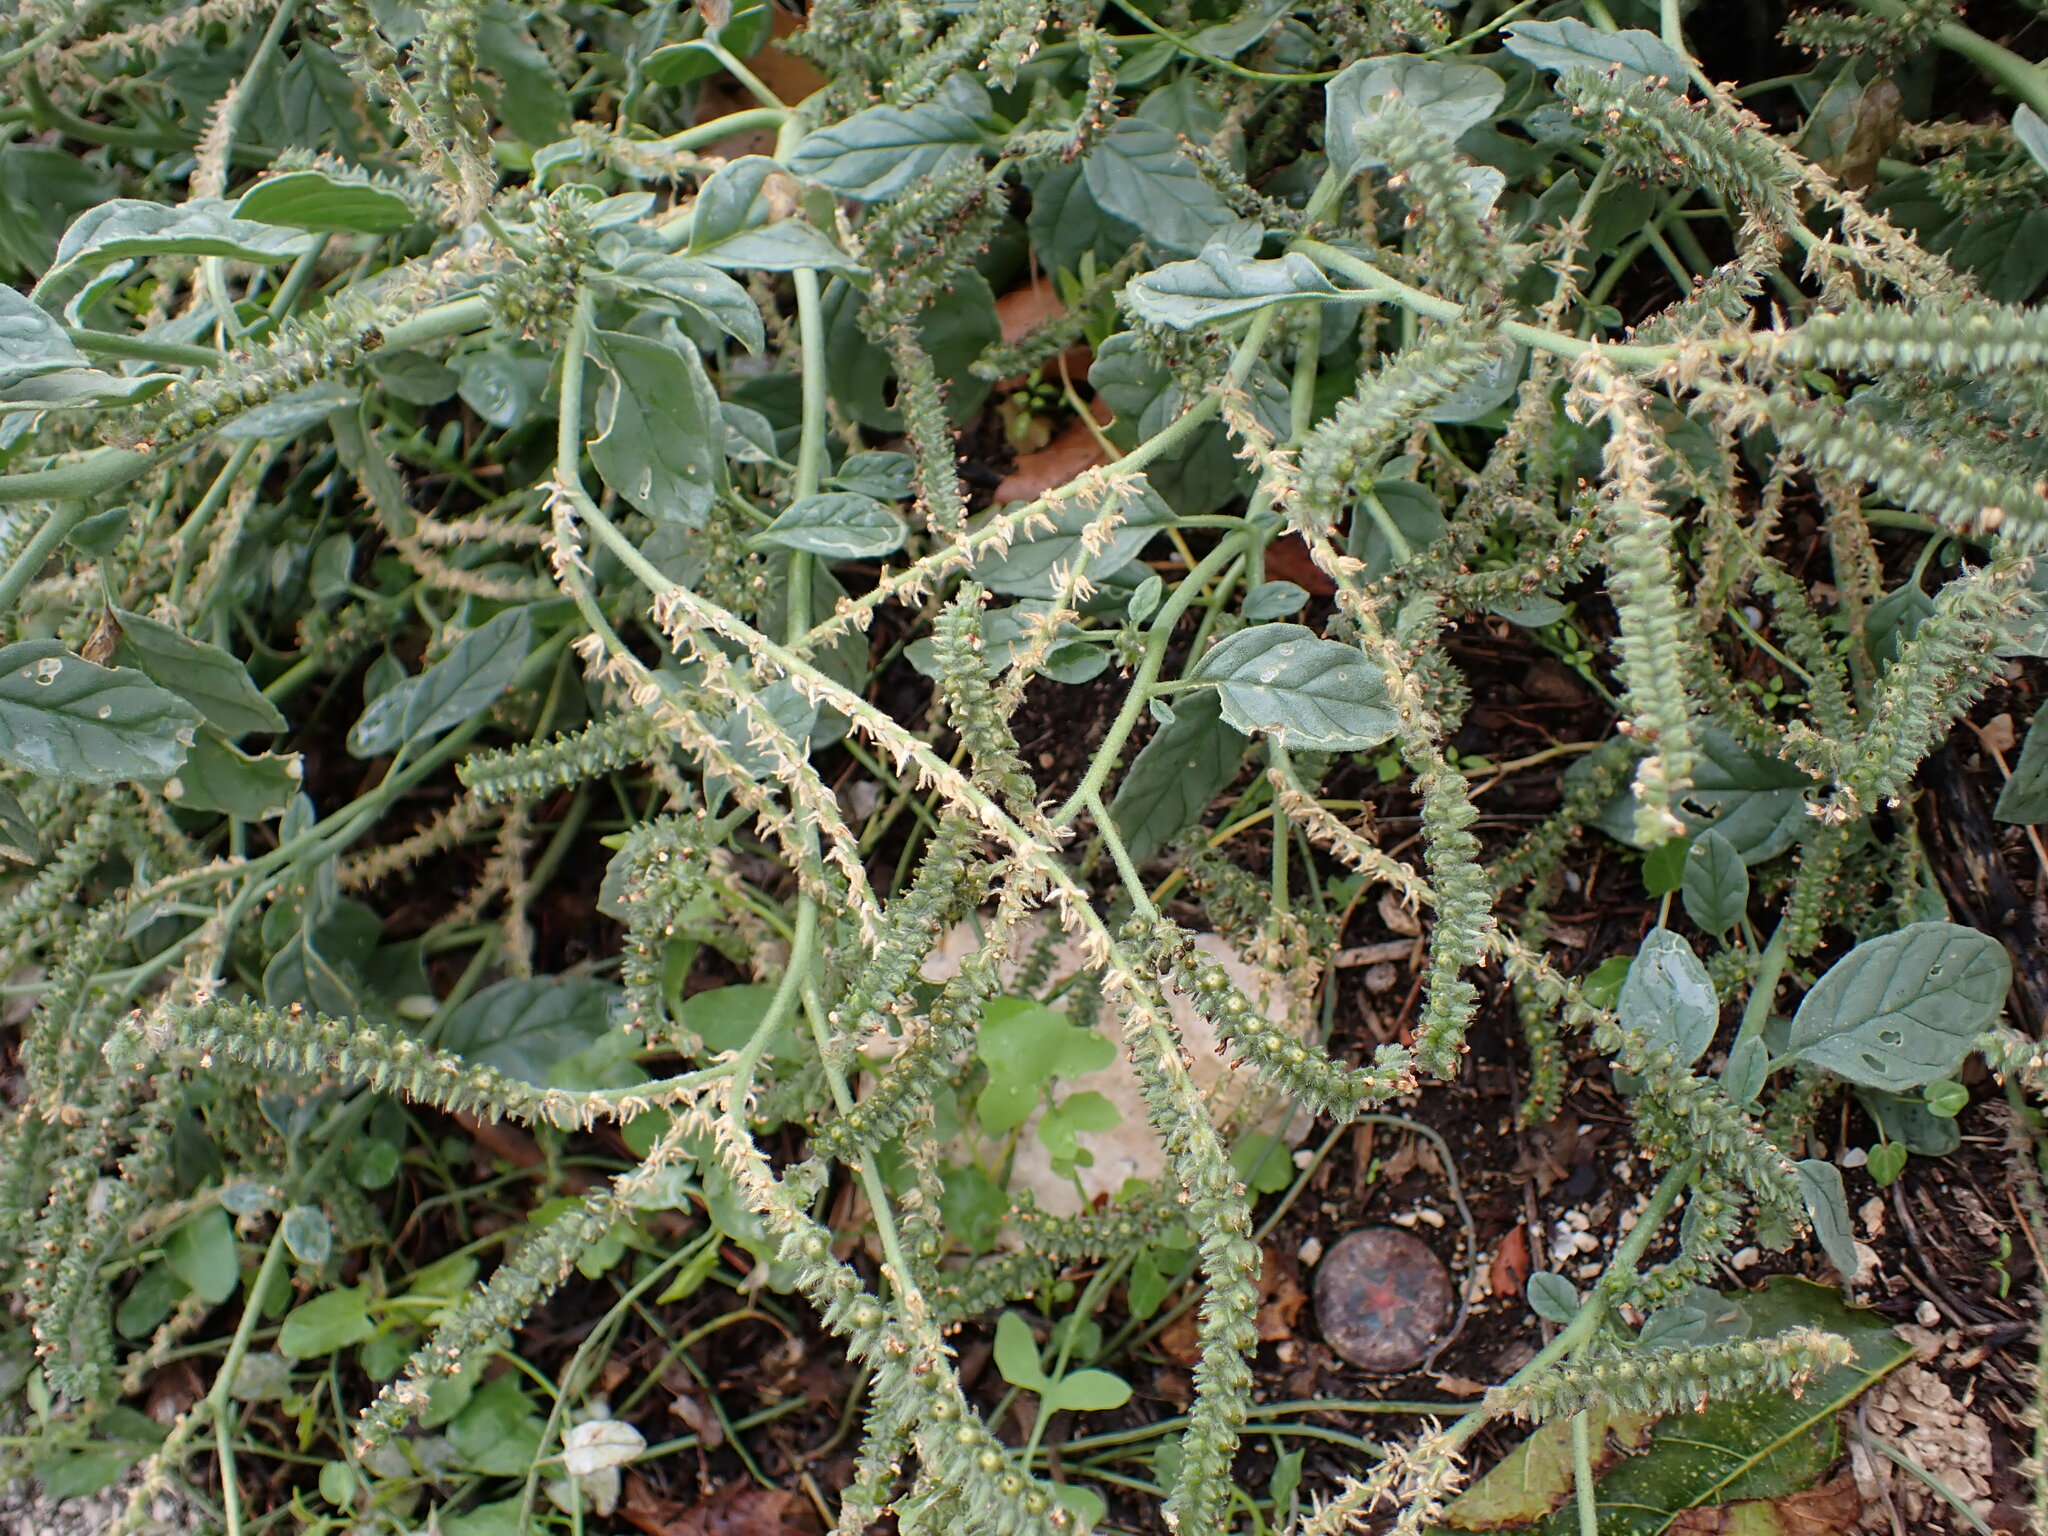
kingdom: Plantae
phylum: Tracheophyta
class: Magnoliopsida
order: Boraginales
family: Heliotropiaceae
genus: Heliotropium
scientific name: Heliotropium europaeum
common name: European heliotrope
